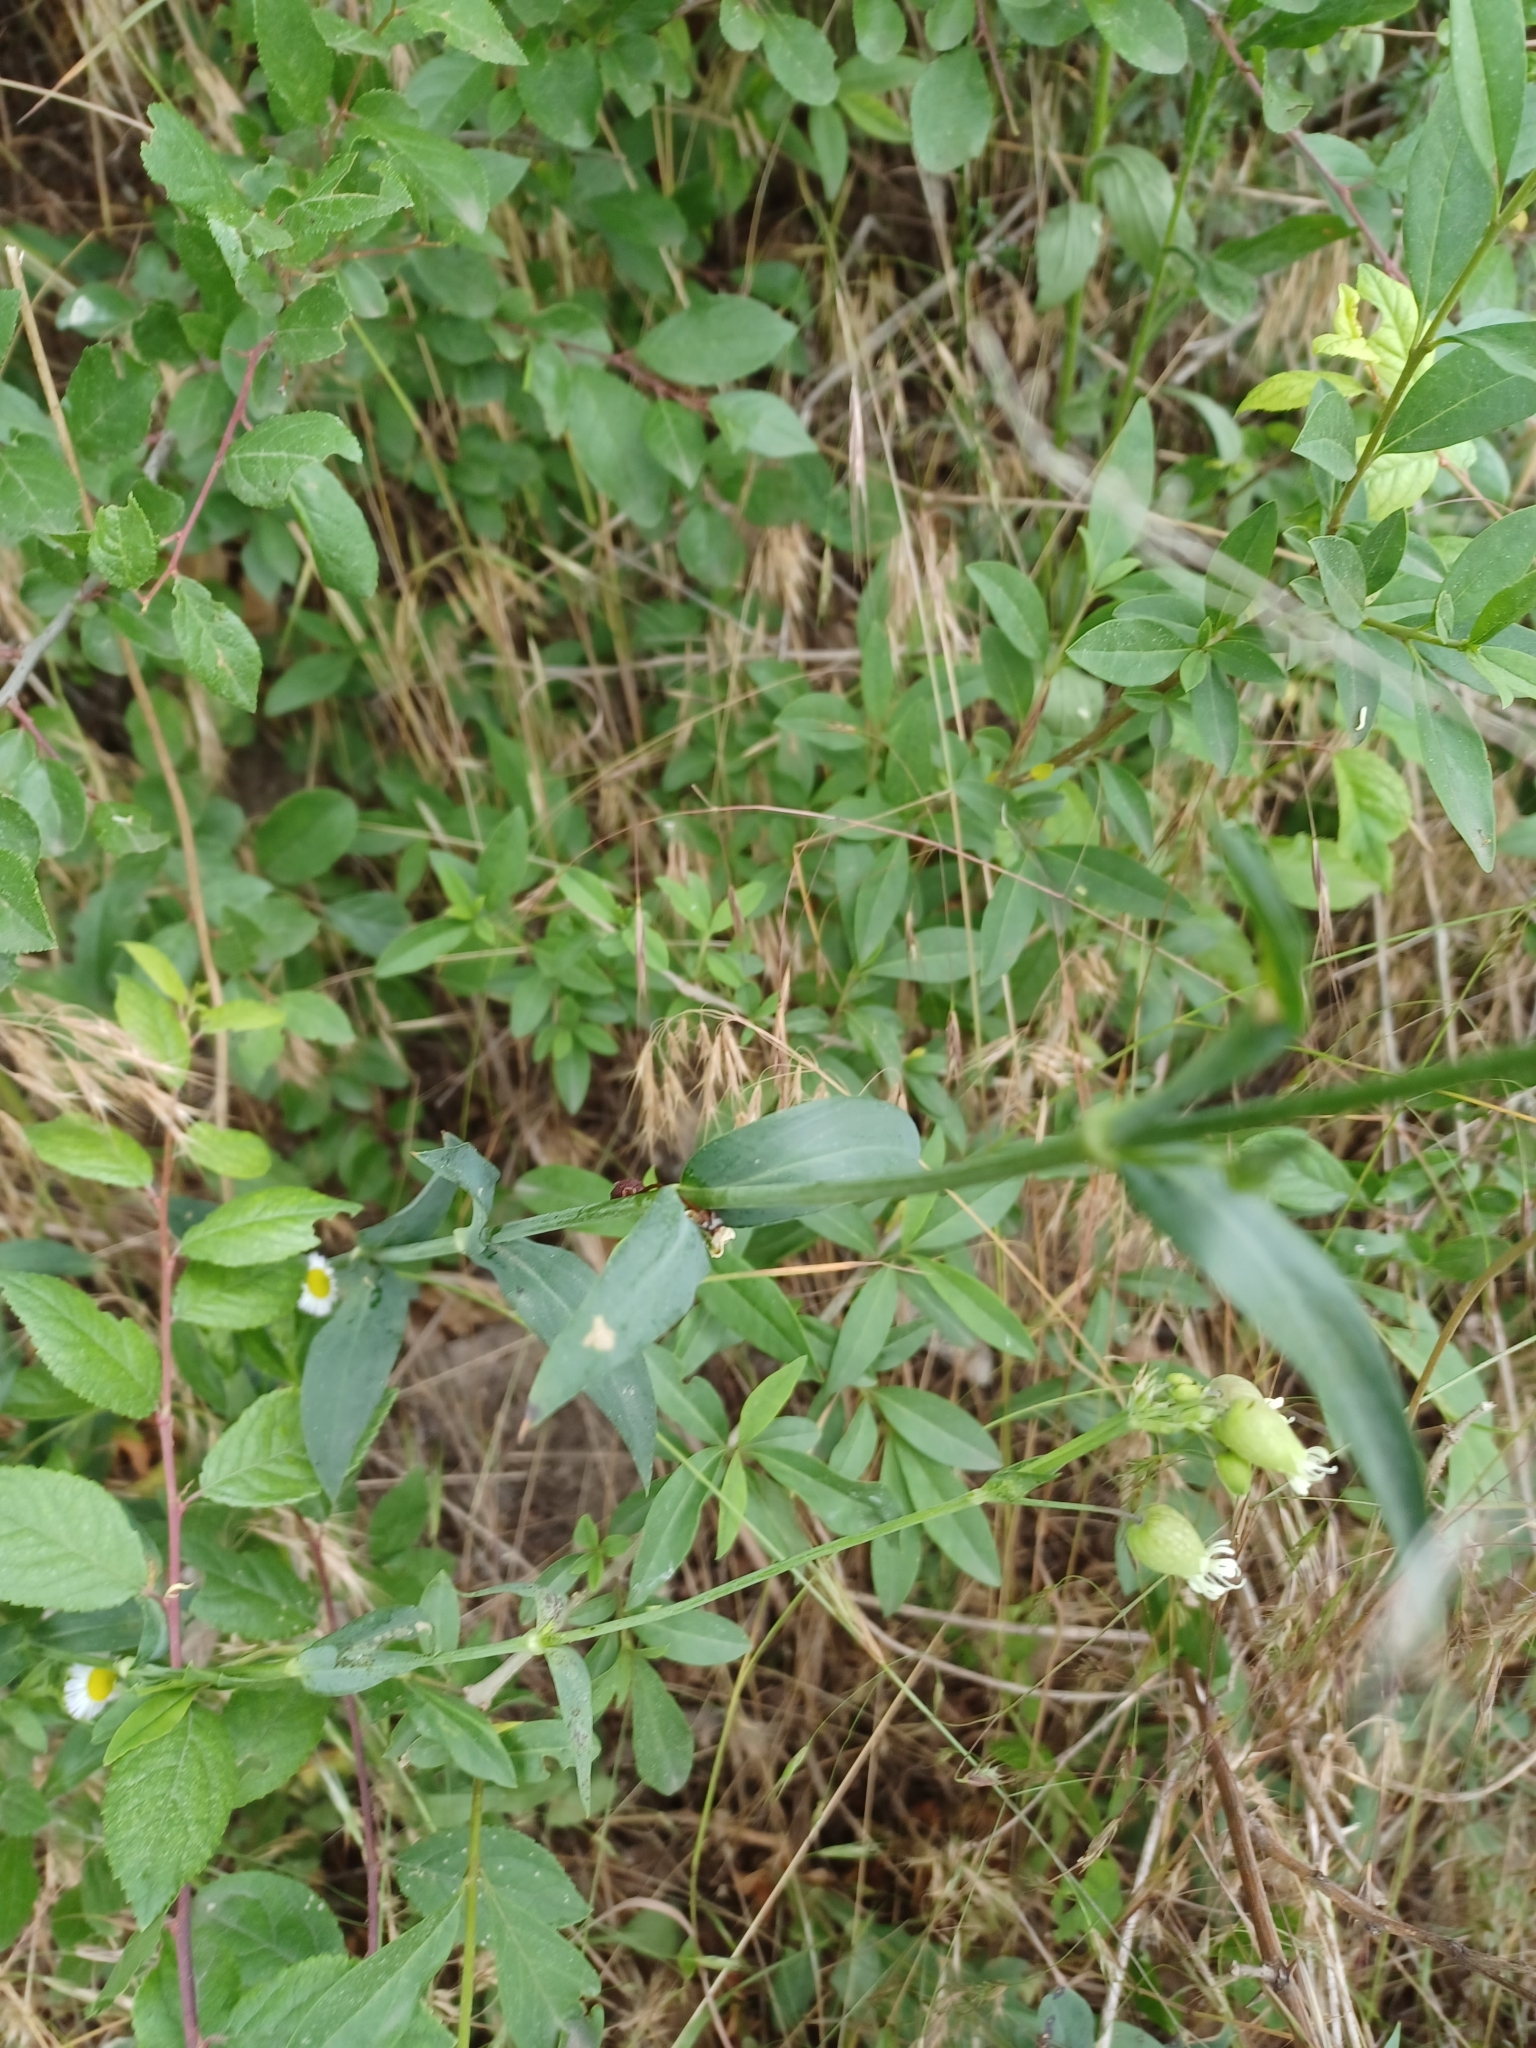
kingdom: Plantae
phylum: Tracheophyta
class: Magnoliopsida
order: Caryophyllales
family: Caryophyllaceae
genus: Silene
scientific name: Silene vulgaris
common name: Bladder campion
